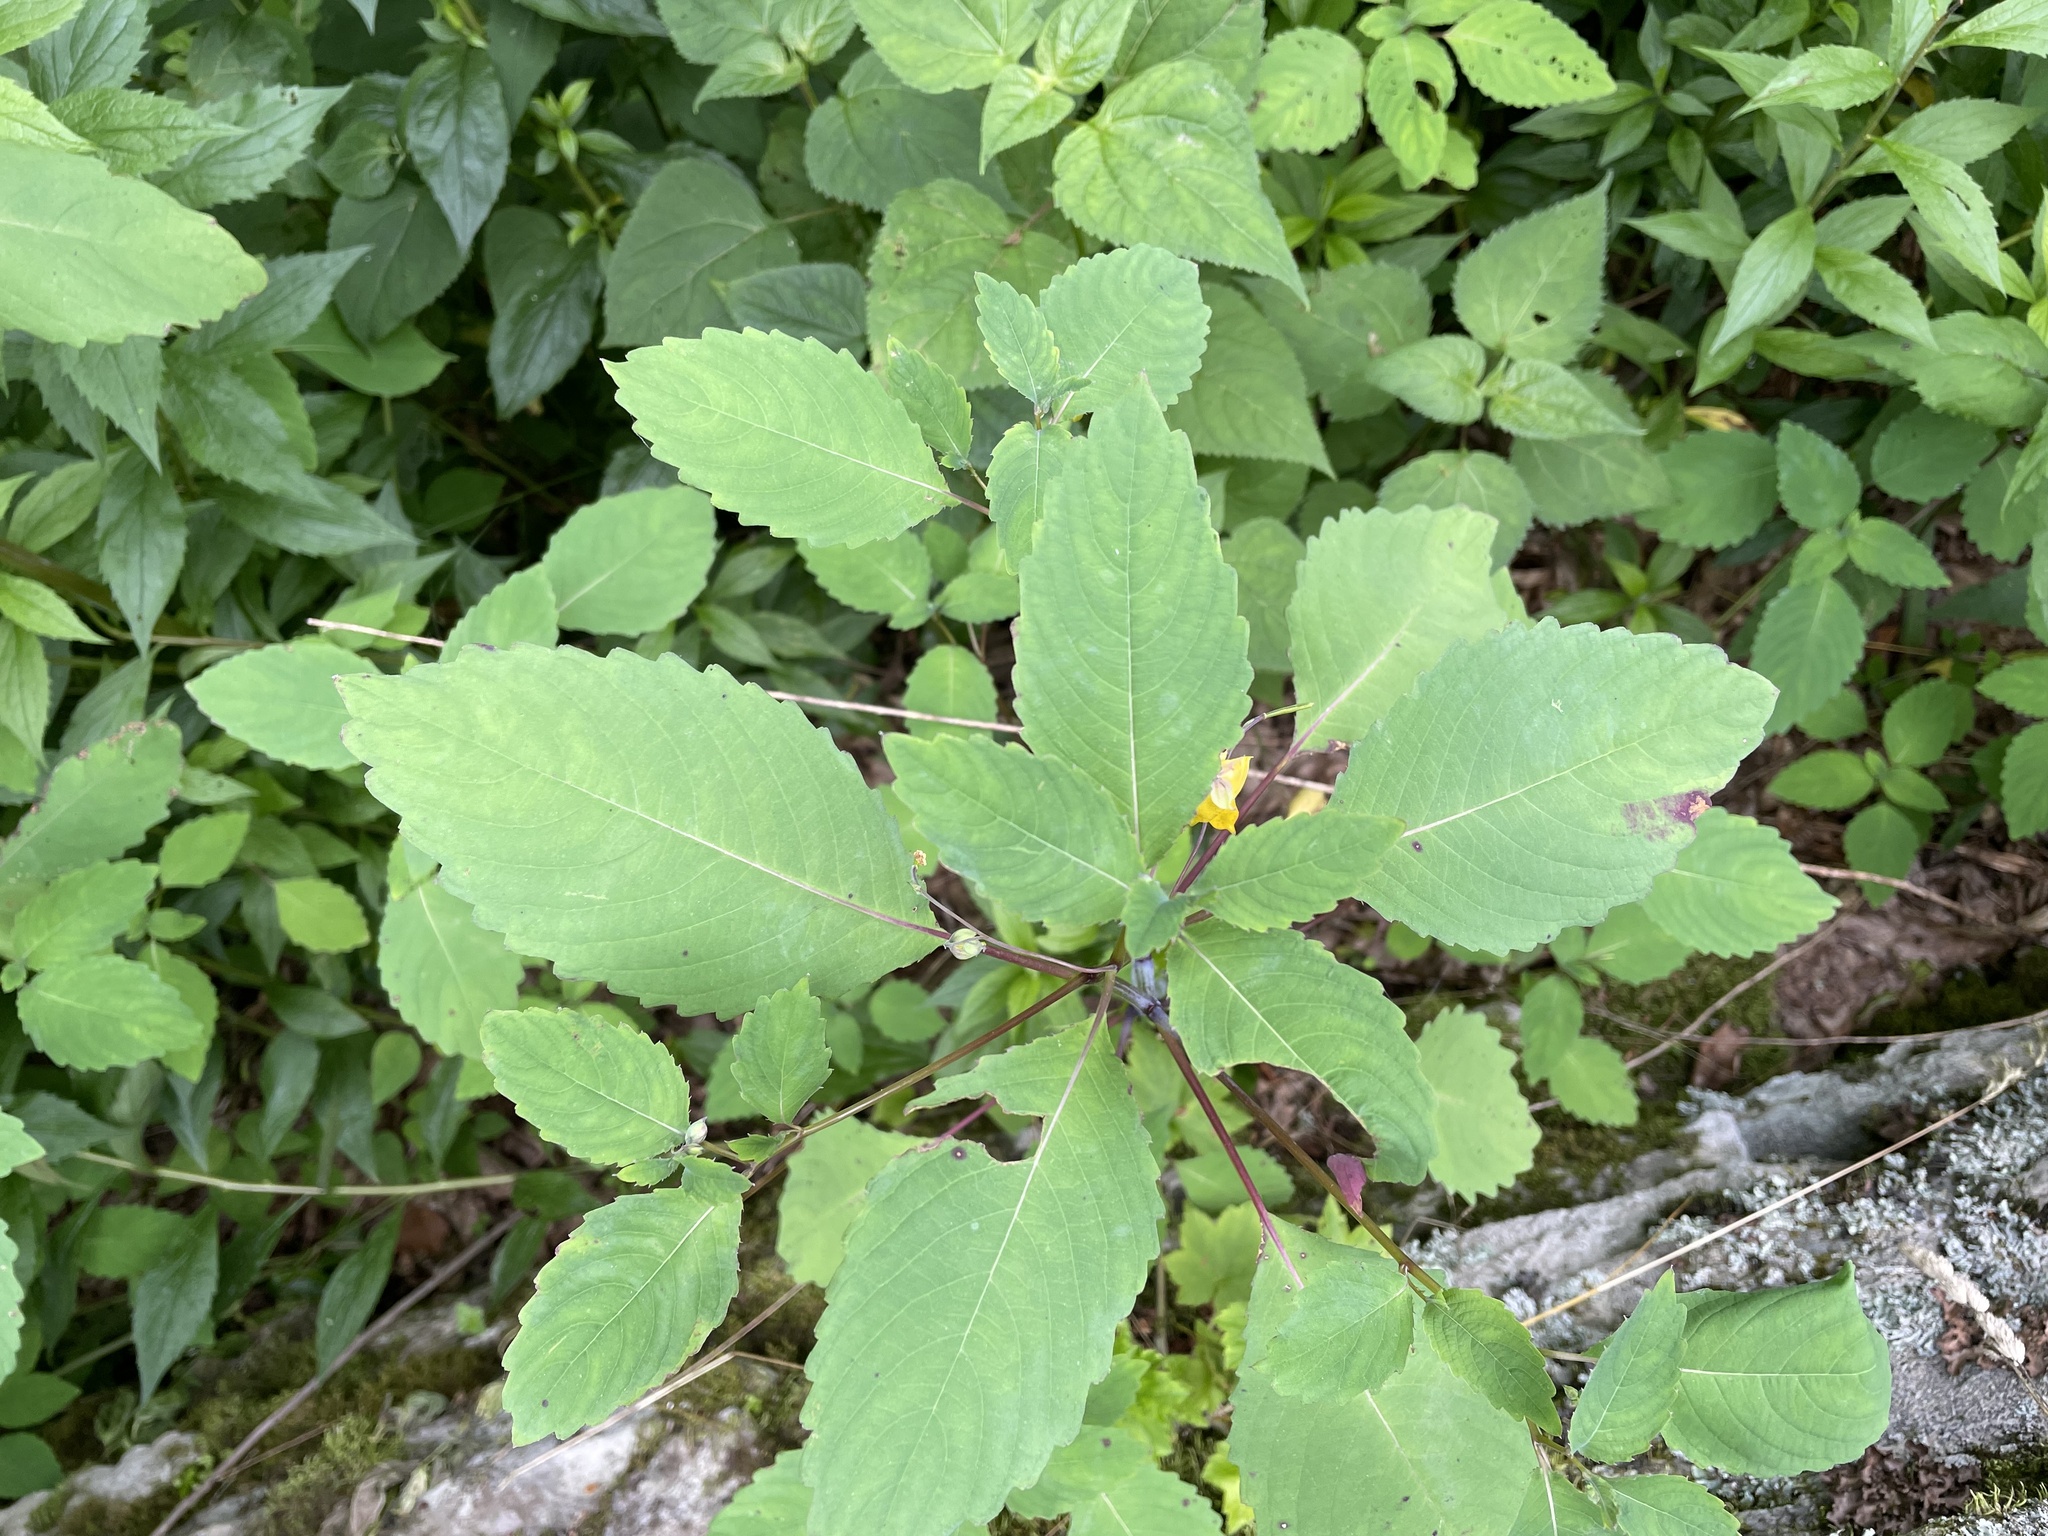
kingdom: Plantae
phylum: Tracheophyta
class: Magnoliopsida
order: Ericales
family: Balsaminaceae
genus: Impatiens
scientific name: Impatiens pallida
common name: Pale snapweed
